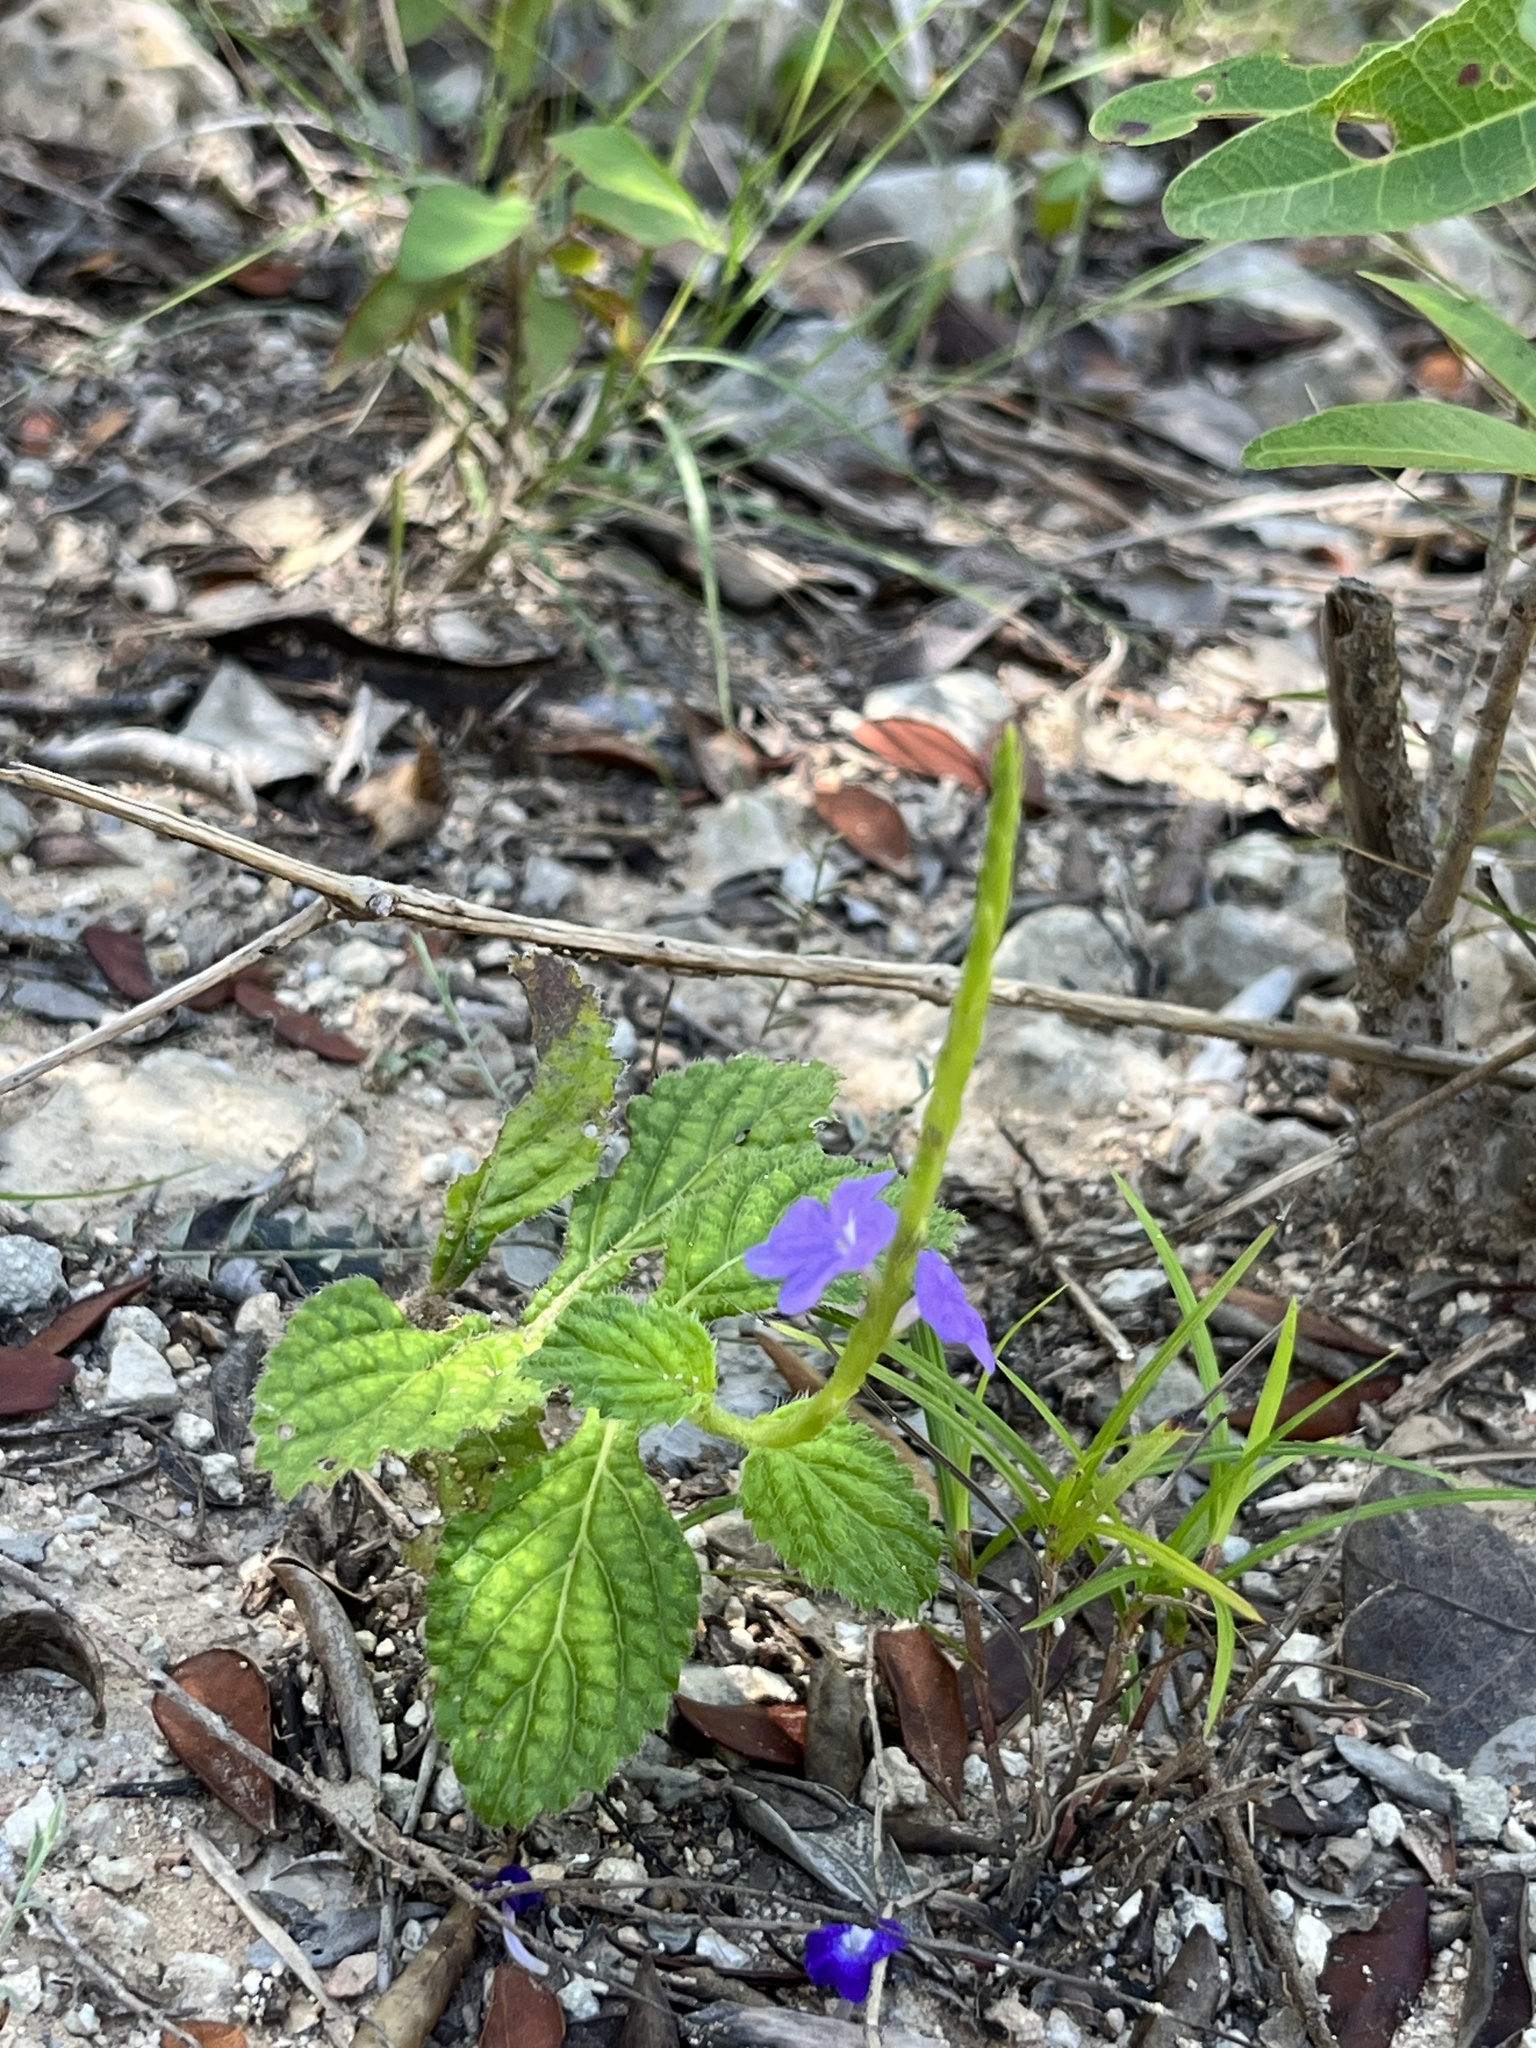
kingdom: Plantae
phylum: Tracheophyta
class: Magnoliopsida
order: Lamiales
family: Verbenaceae
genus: Stachytarpheta
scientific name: Stachytarpheta strigosa
